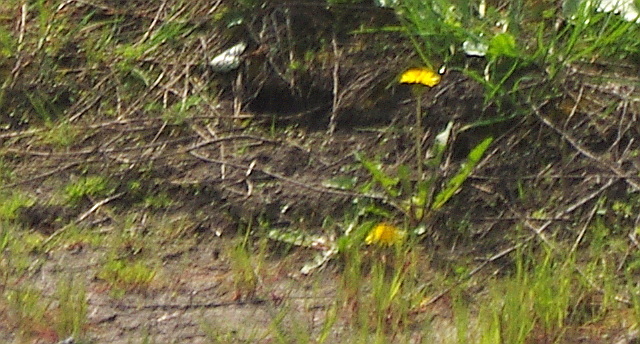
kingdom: Plantae
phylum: Tracheophyta
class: Magnoliopsida
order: Asterales
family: Asteraceae
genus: Taraxacum
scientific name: Taraxacum officinale
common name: Common dandelion
